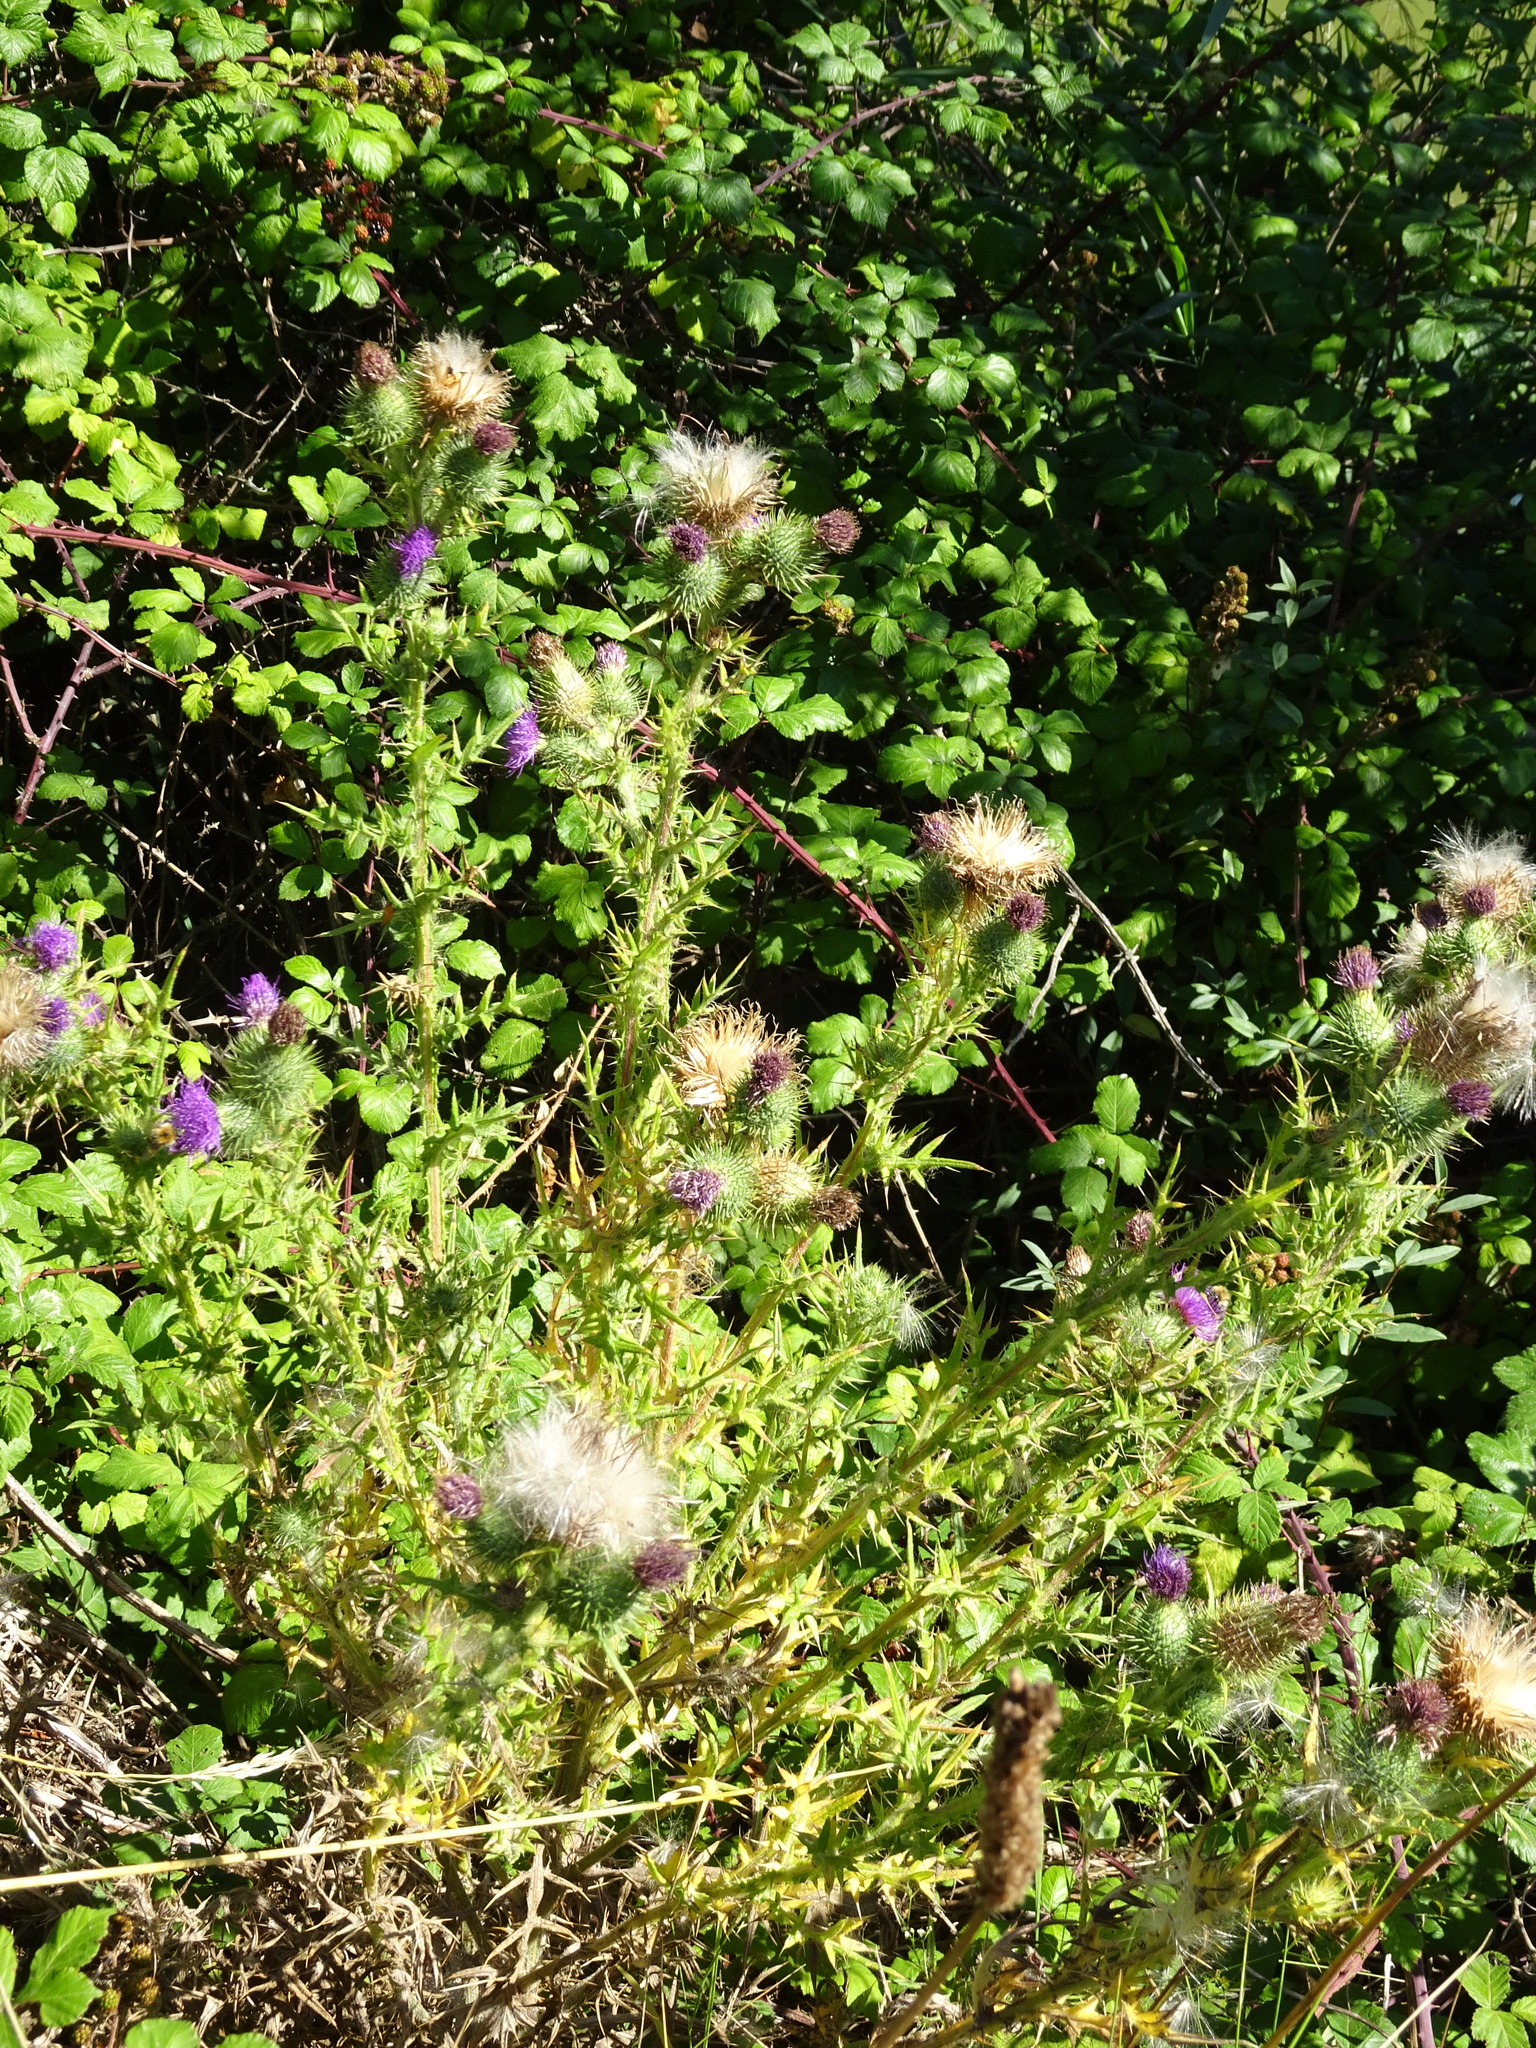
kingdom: Plantae
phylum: Tracheophyta
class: Magnoliopsida
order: Asterales
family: Asteraceae
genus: Cirsium
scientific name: Cirsium vulgare
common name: Bull thistle
